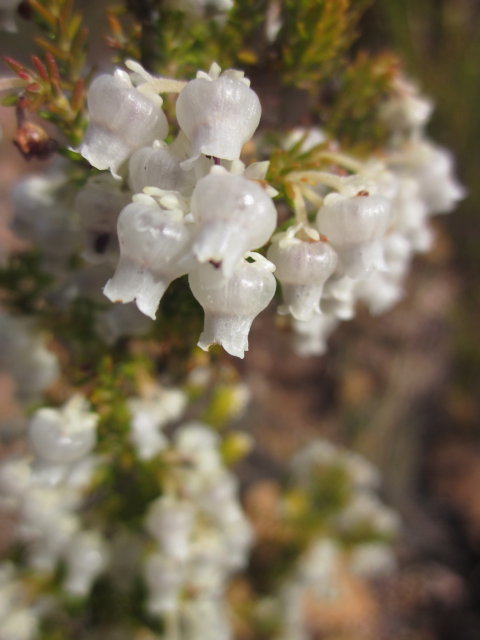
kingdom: Plantae
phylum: Tracheophyta
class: Magnoliopsida
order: Ericales
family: Ericaceae
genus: Erica
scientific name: Erica glomiflora
